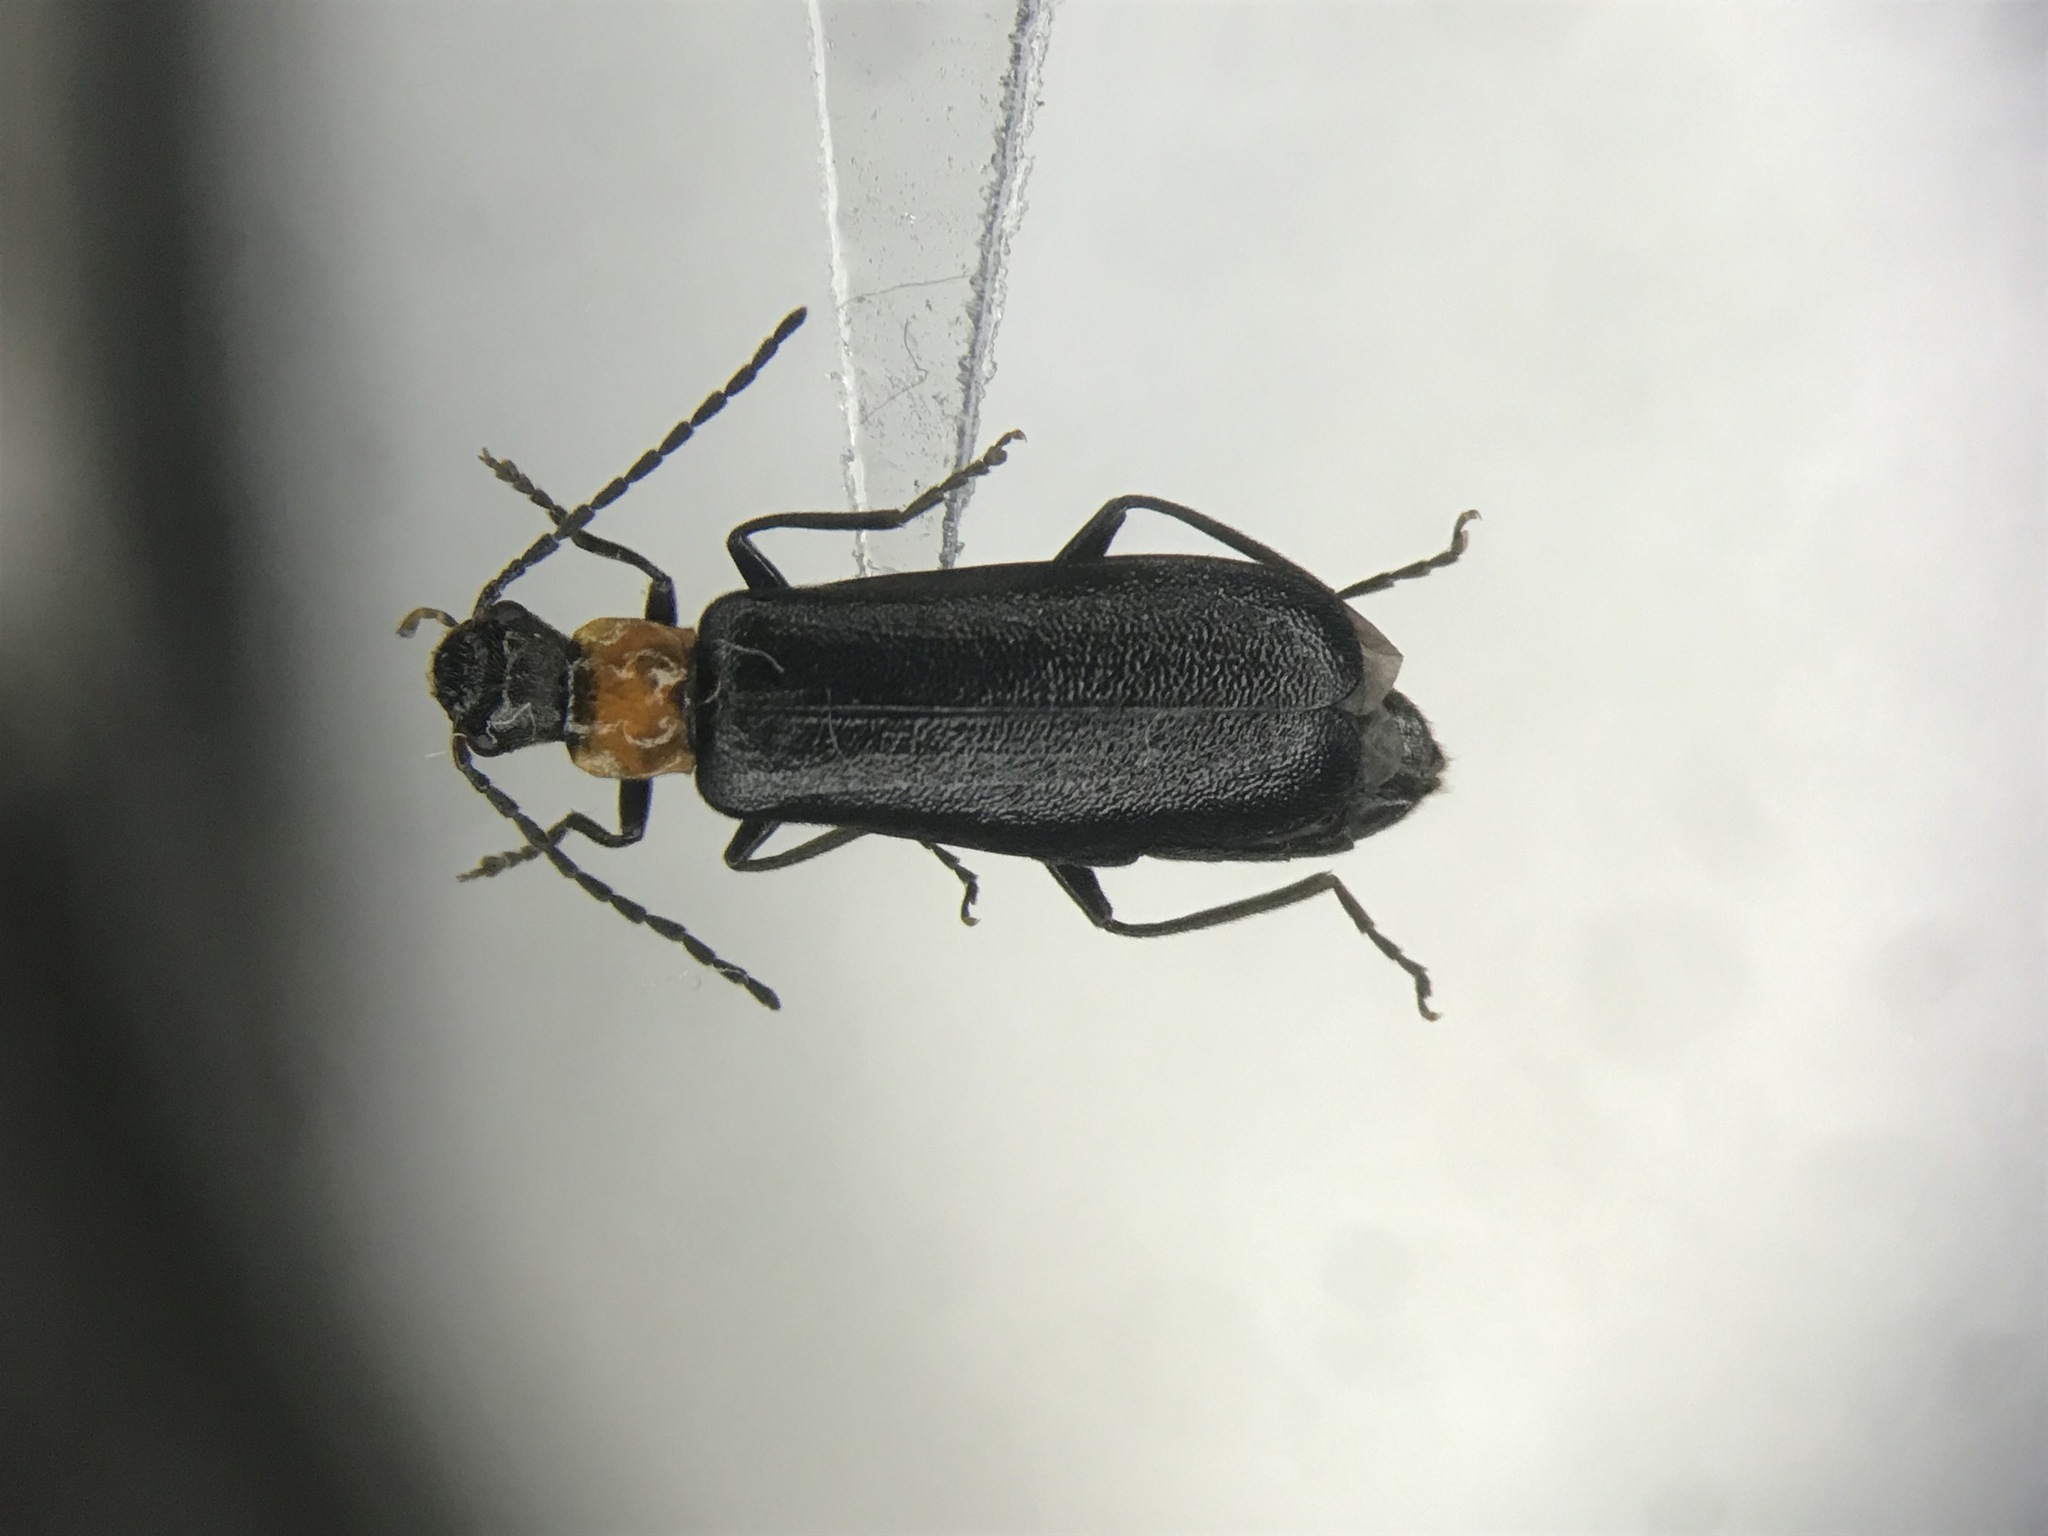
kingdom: Animalia
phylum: Arthropoda
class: Insecta
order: Coleoptera
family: Cantharidae
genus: Dichelotarsus
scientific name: Dichelotarsus pattoni
